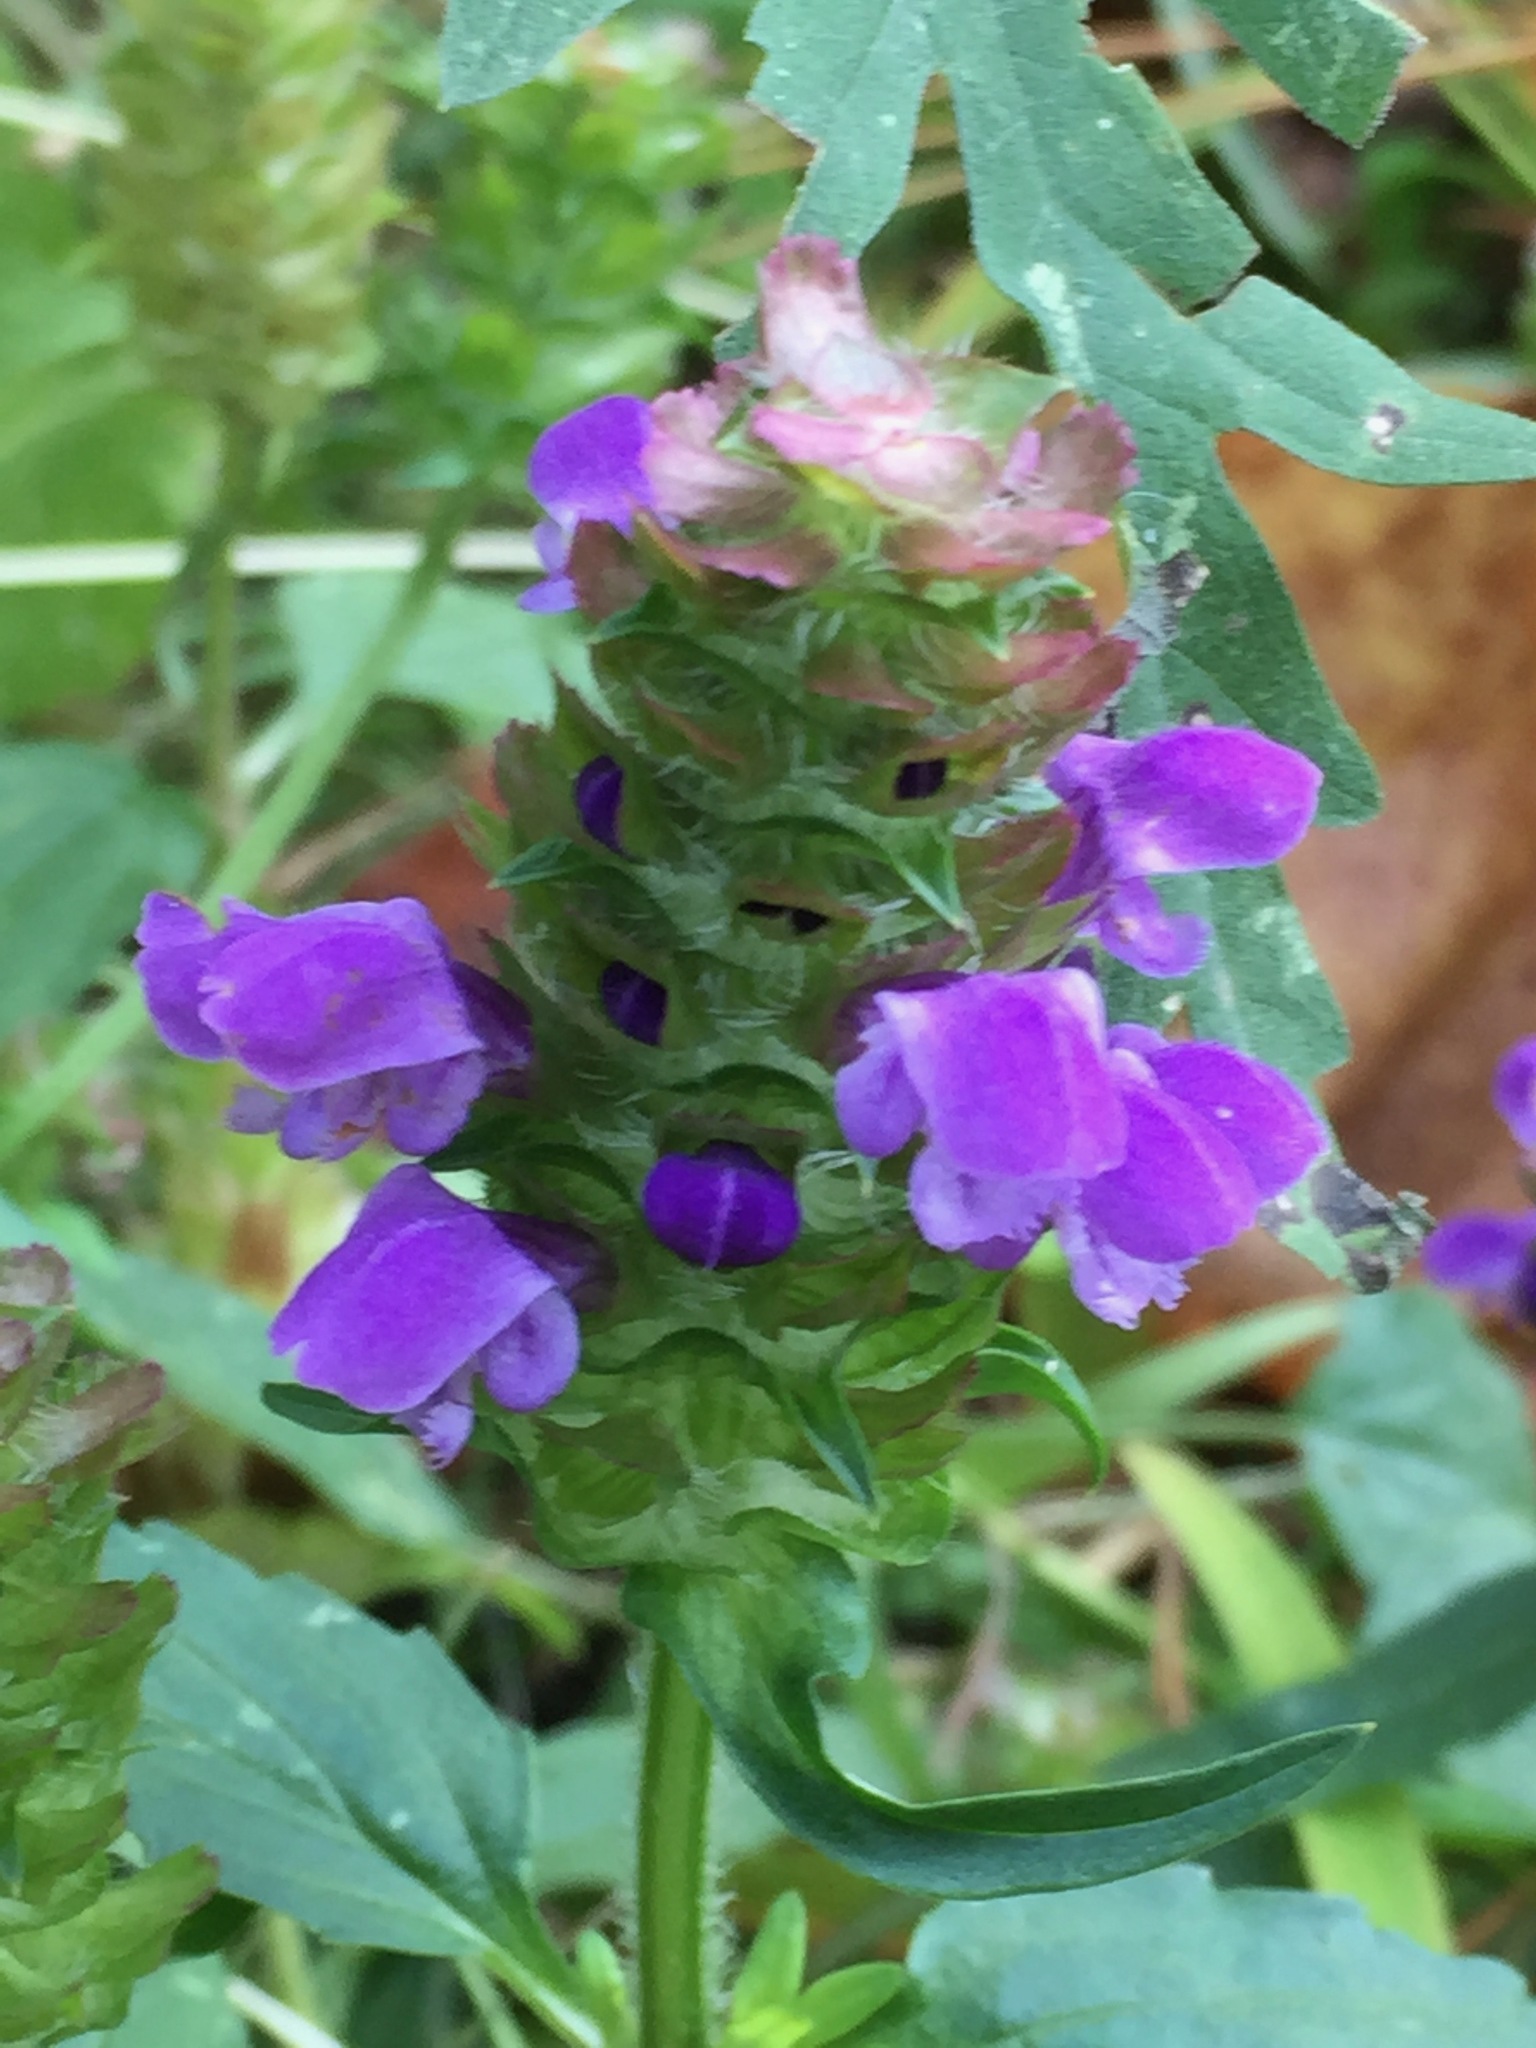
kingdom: Plantae
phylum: Tracheophyta
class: Magnoliopsida
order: Lamiales
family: Lamiaceae
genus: Prunella
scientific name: Prunella vulgaris
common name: Heal-all
